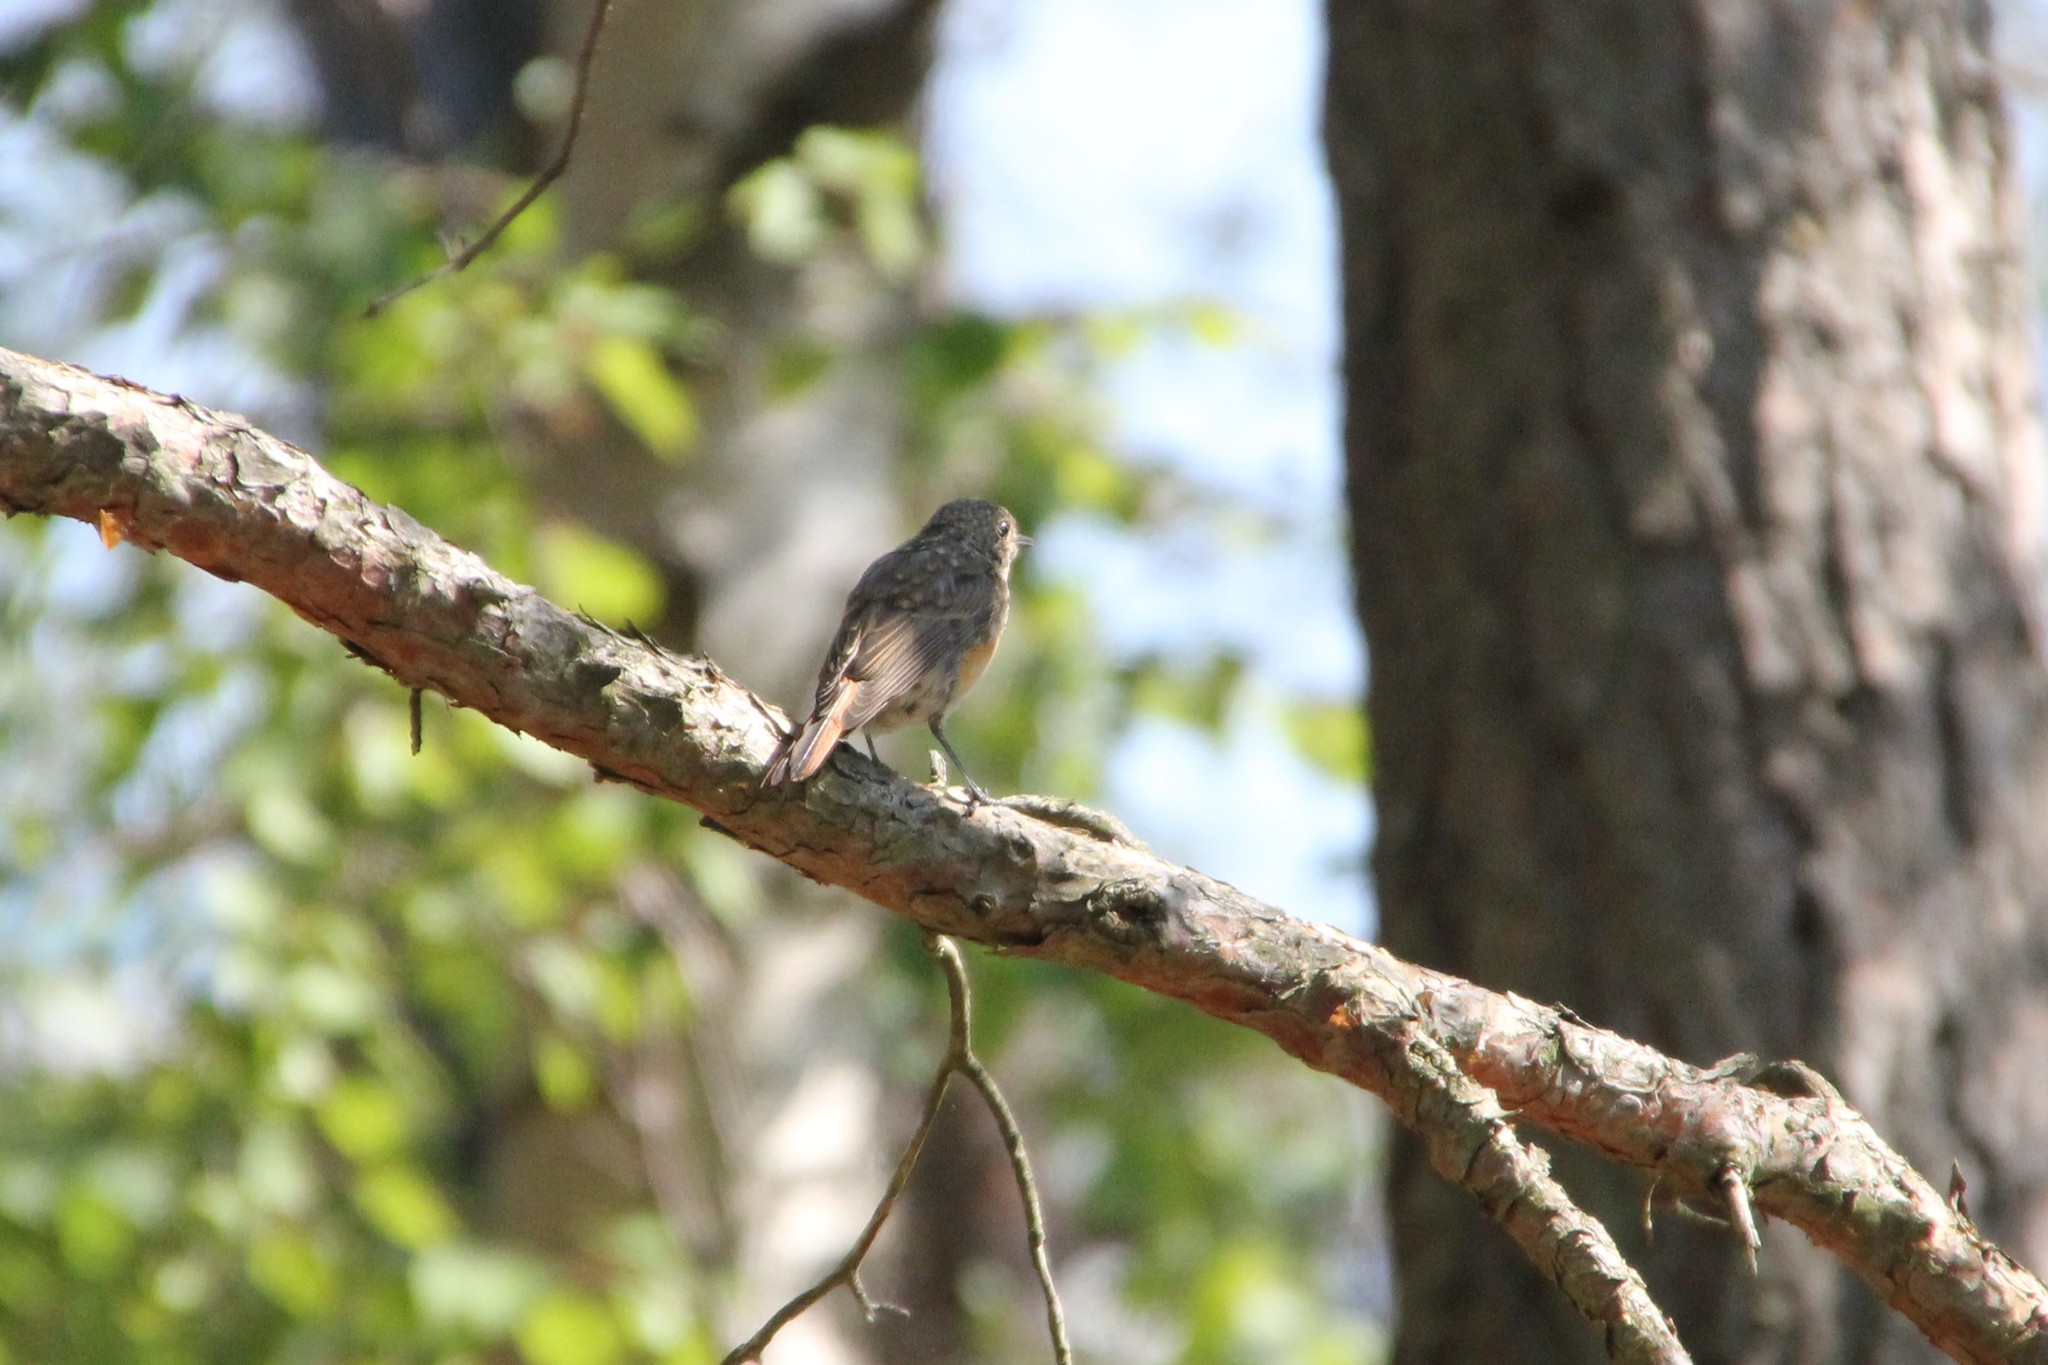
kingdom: Animalia
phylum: Chordata
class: Aves
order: Passeriformes
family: Muscicapidae
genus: Phoenicurus
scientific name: Phoenicurus phoenicurus
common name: Common redstart
